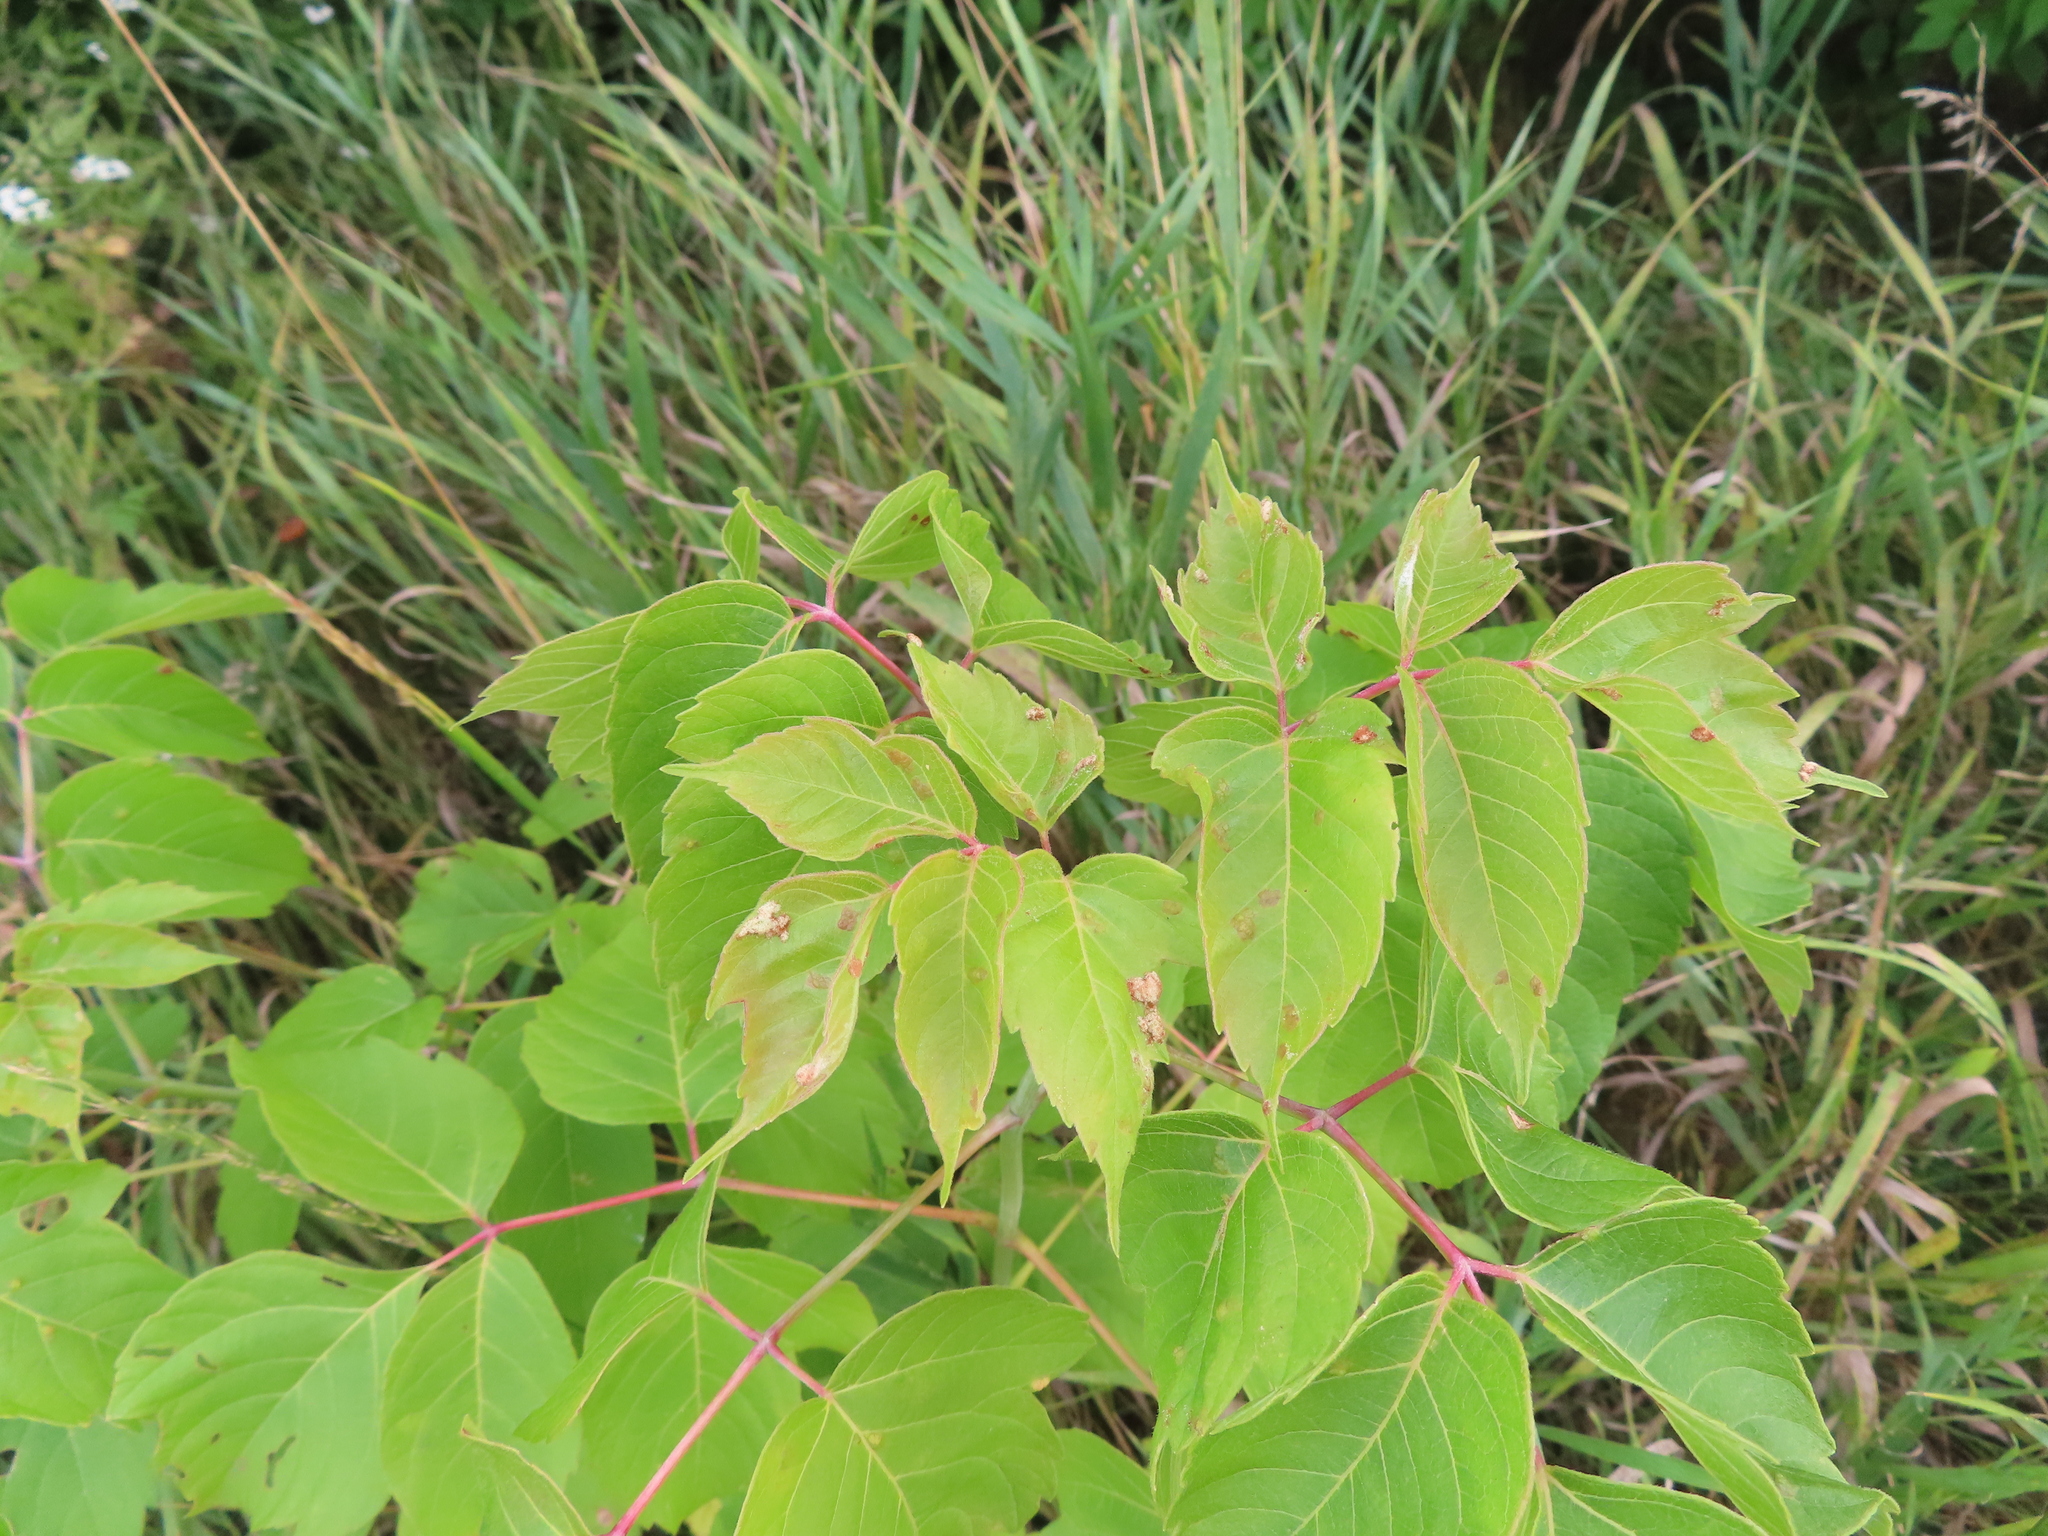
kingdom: Plantae
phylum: Tracheophyta
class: Magnoliopsida
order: Sapindales
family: Sapindaceae
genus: Acer
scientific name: Acer negundo
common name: Ashleaf maple
